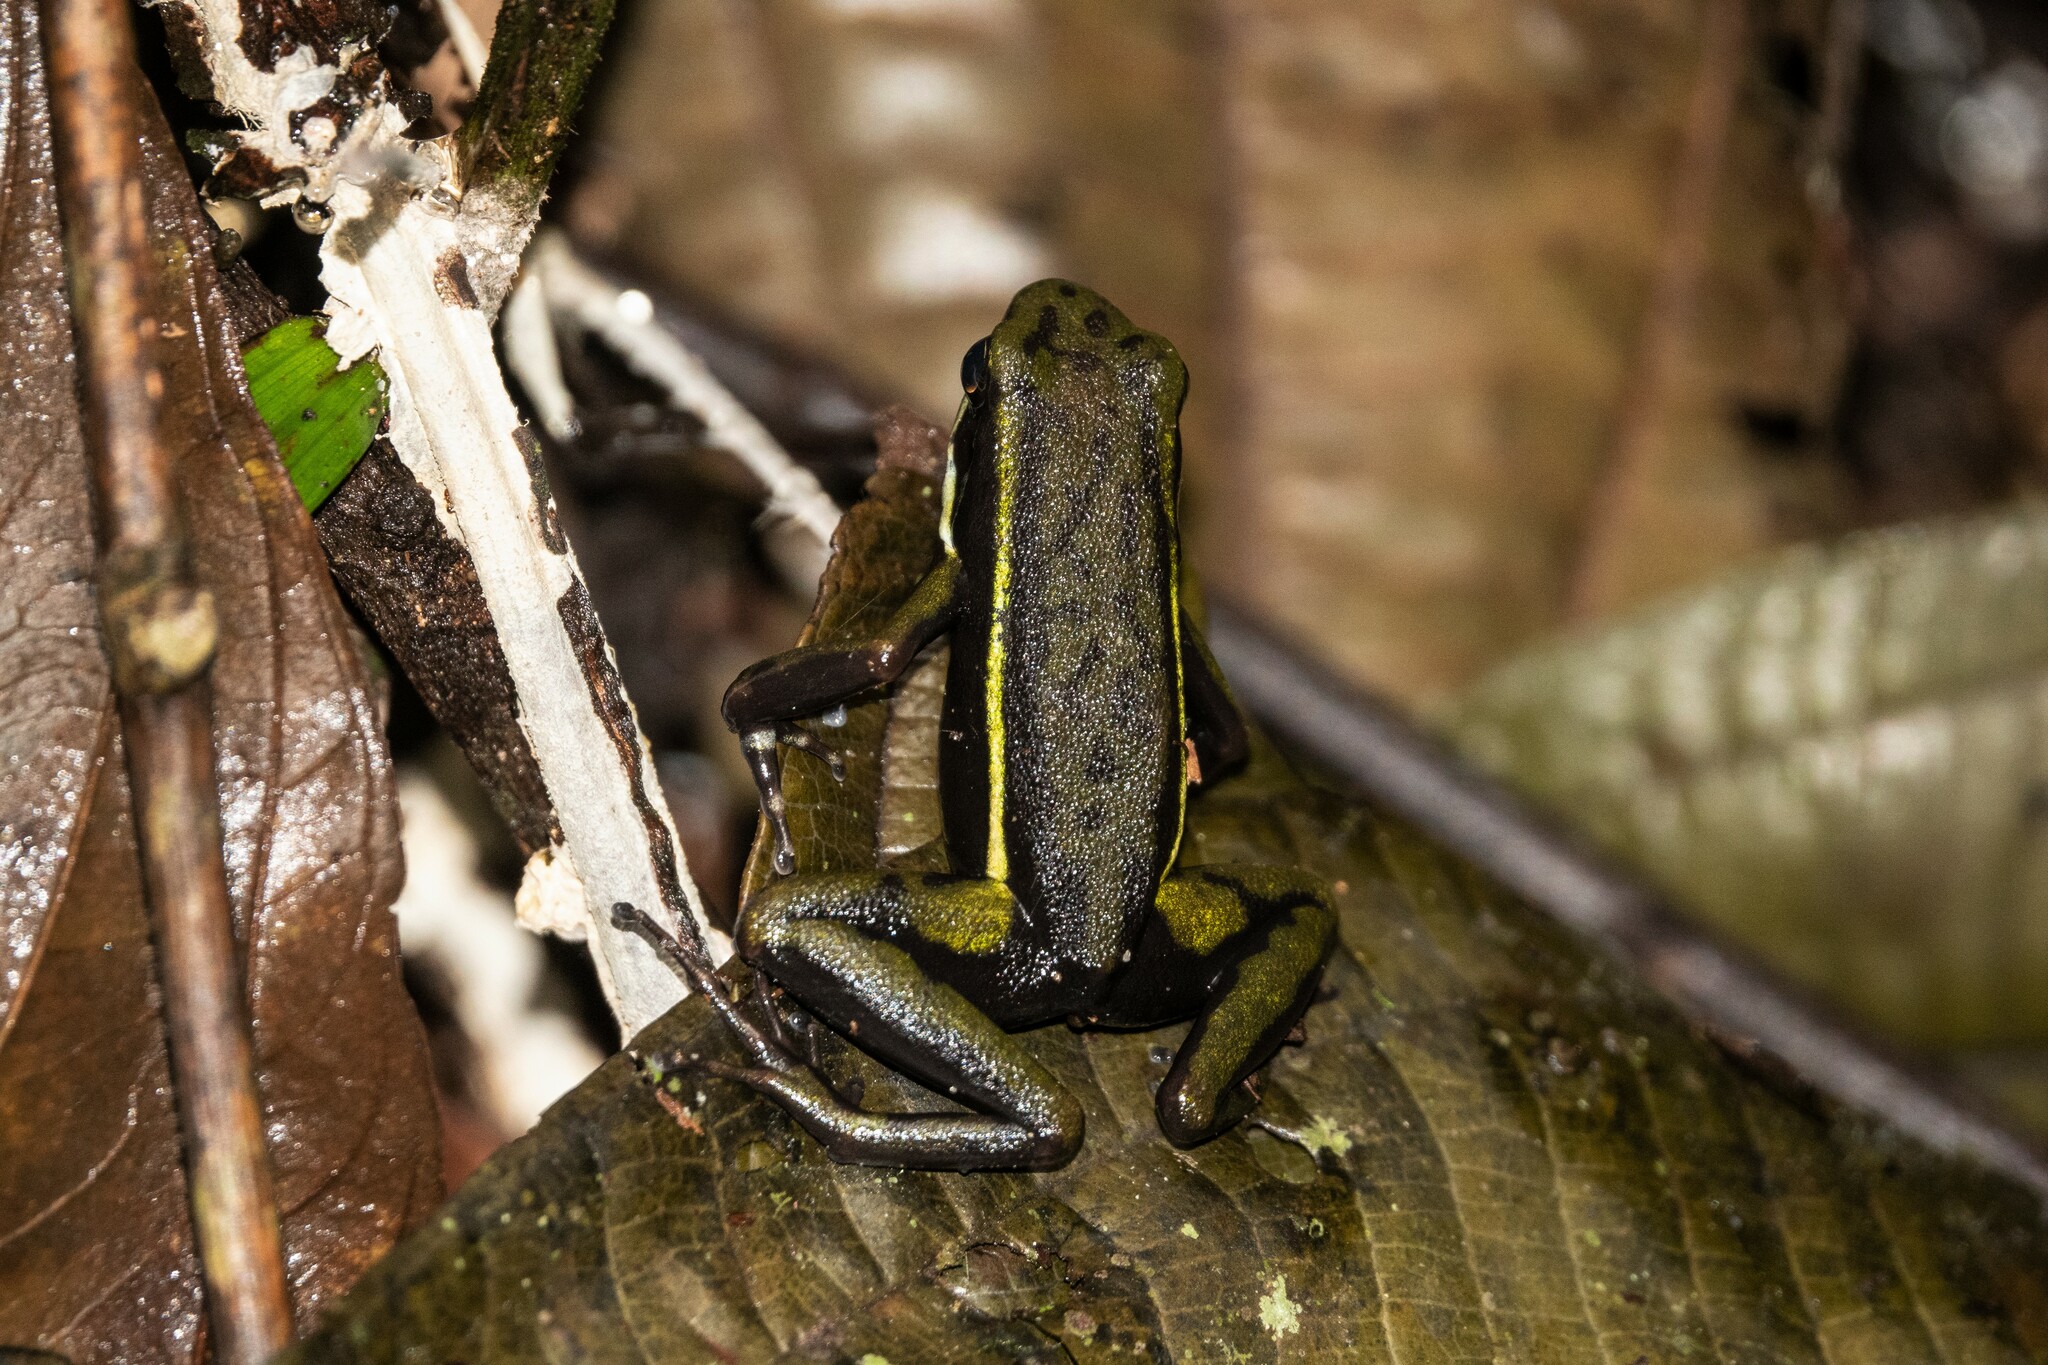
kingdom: Animalia
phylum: Chordata
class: Amphibia
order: Anura
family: Dendrobatidae
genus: Ameerega
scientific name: Ameerega trivittata
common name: Three-striped arrow-poison frog
